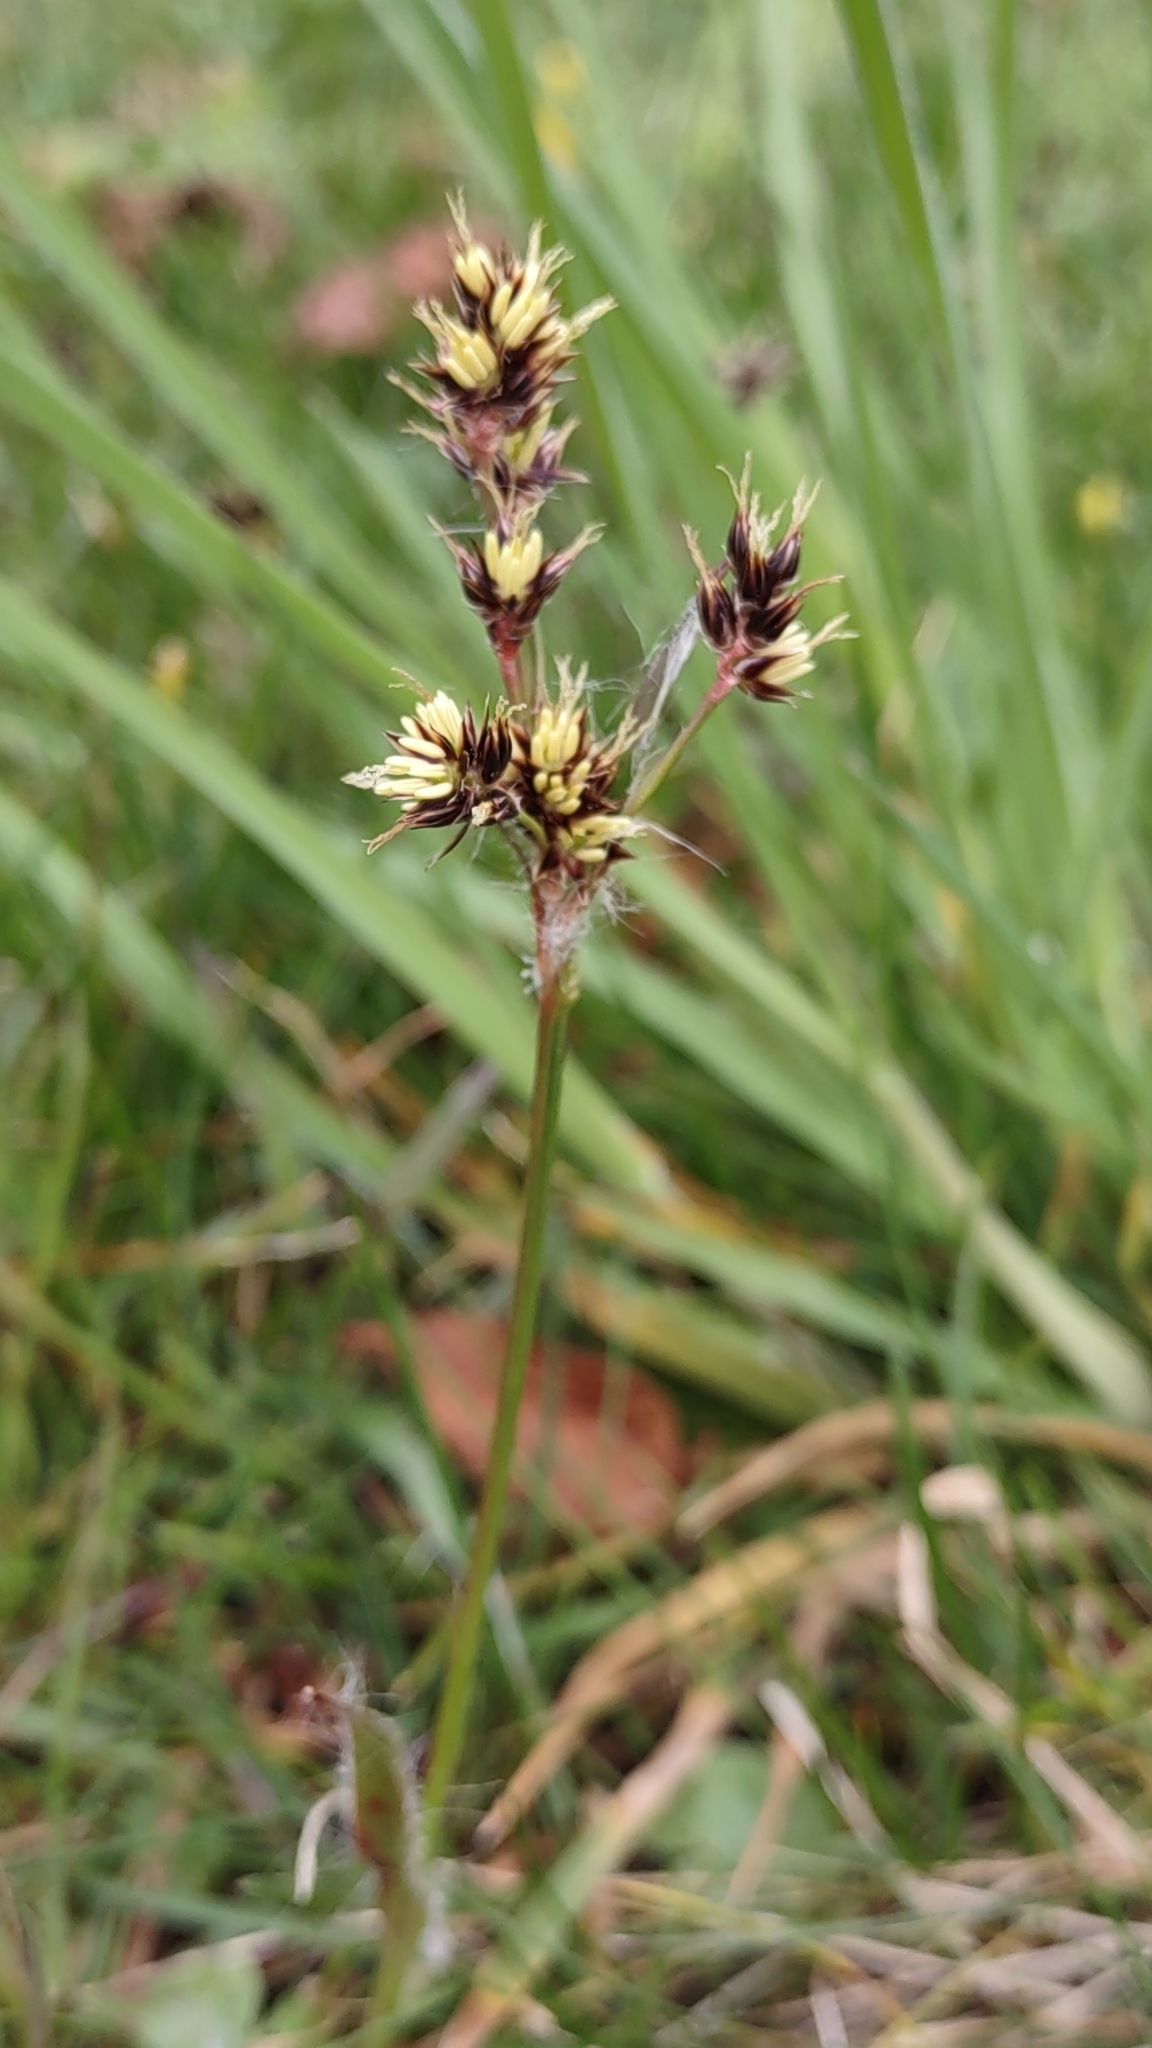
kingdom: Plantae
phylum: Tracheophyta
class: Liliopsida
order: Poales
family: Juncaceae
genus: Luzula
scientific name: Luzula campestris
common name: Field wood-rush
